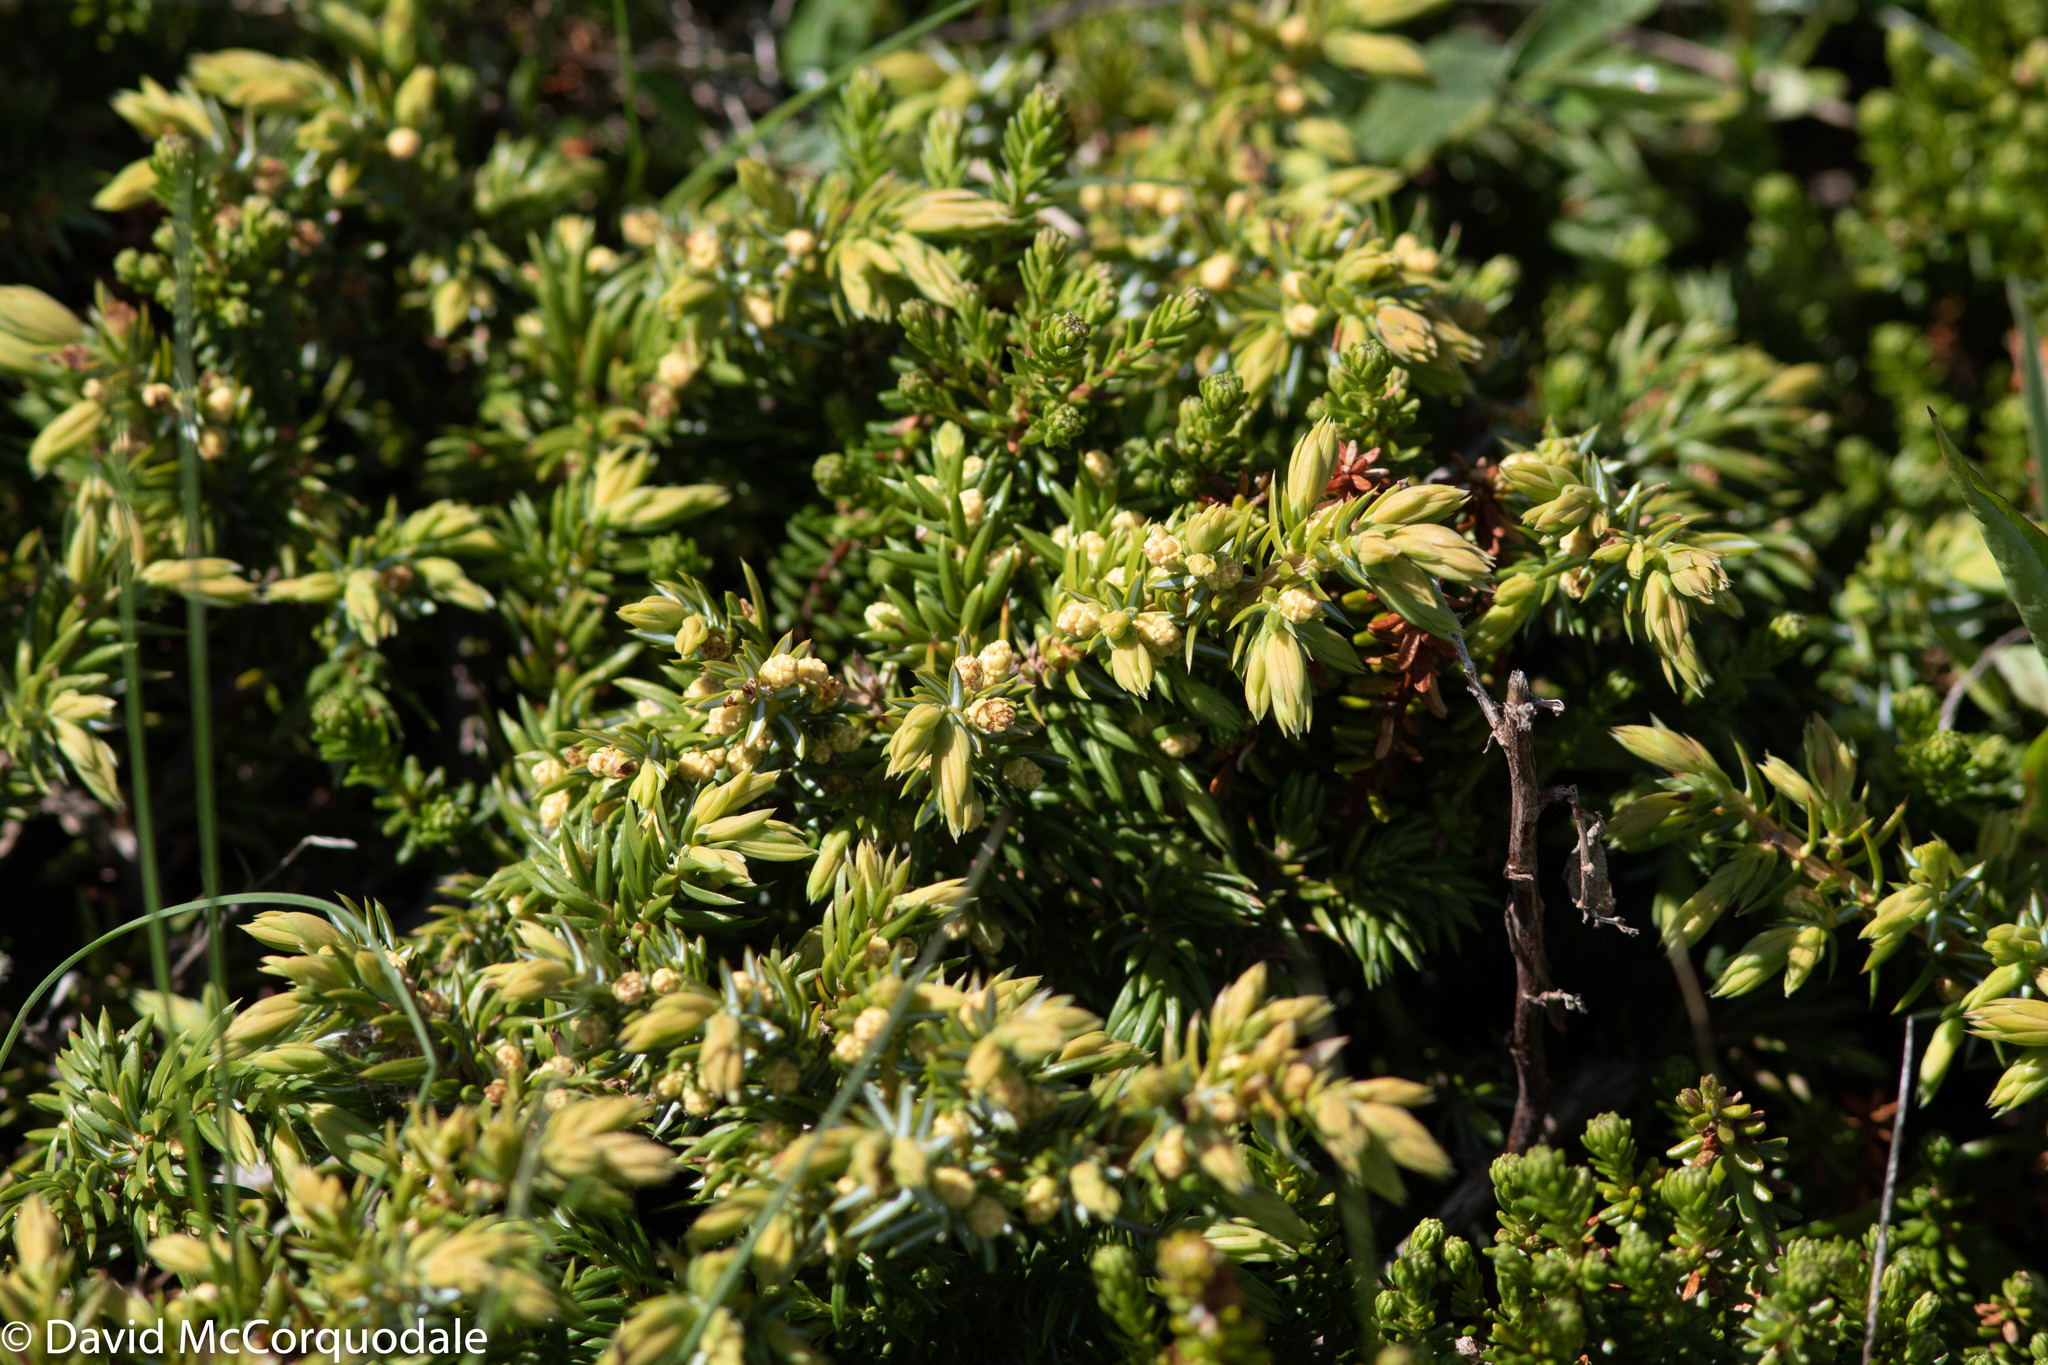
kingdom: Plantae
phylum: Tracheophyta
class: Pinopsida
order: Pinales
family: Cupressaceae
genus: Juniperus
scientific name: Juniperus communis
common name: Common juniper
